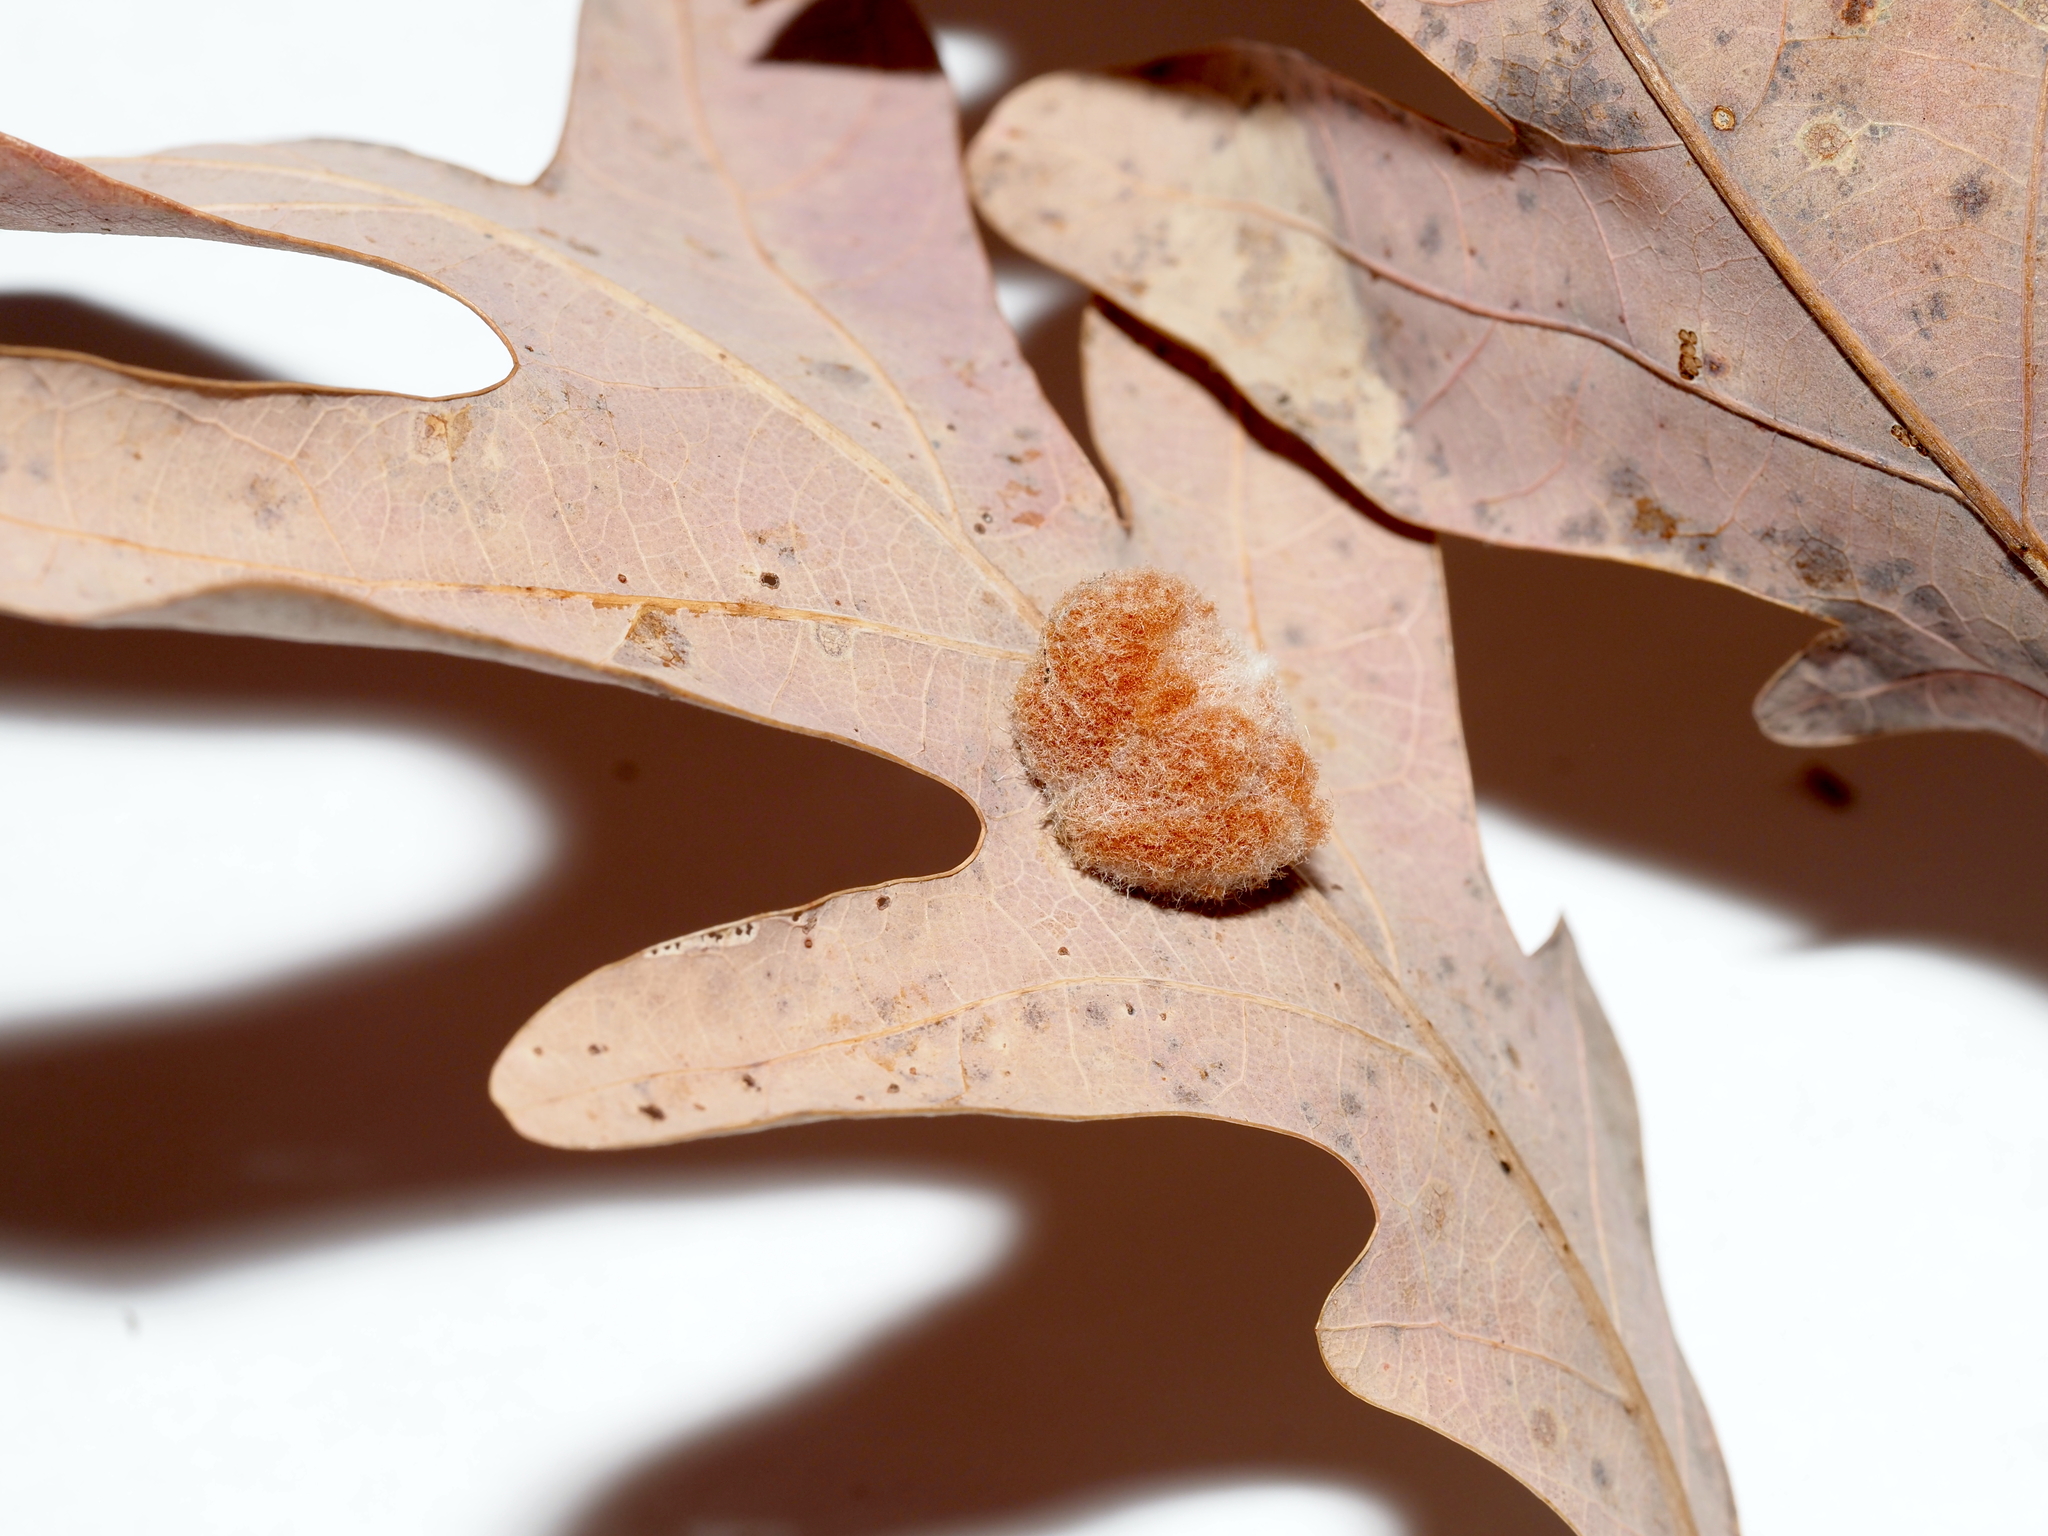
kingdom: Animalia
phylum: Arthropoda
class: Insecta
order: Hymenoptera
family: Cynipidae
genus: Andricus
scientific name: Andricus quercusflocci
